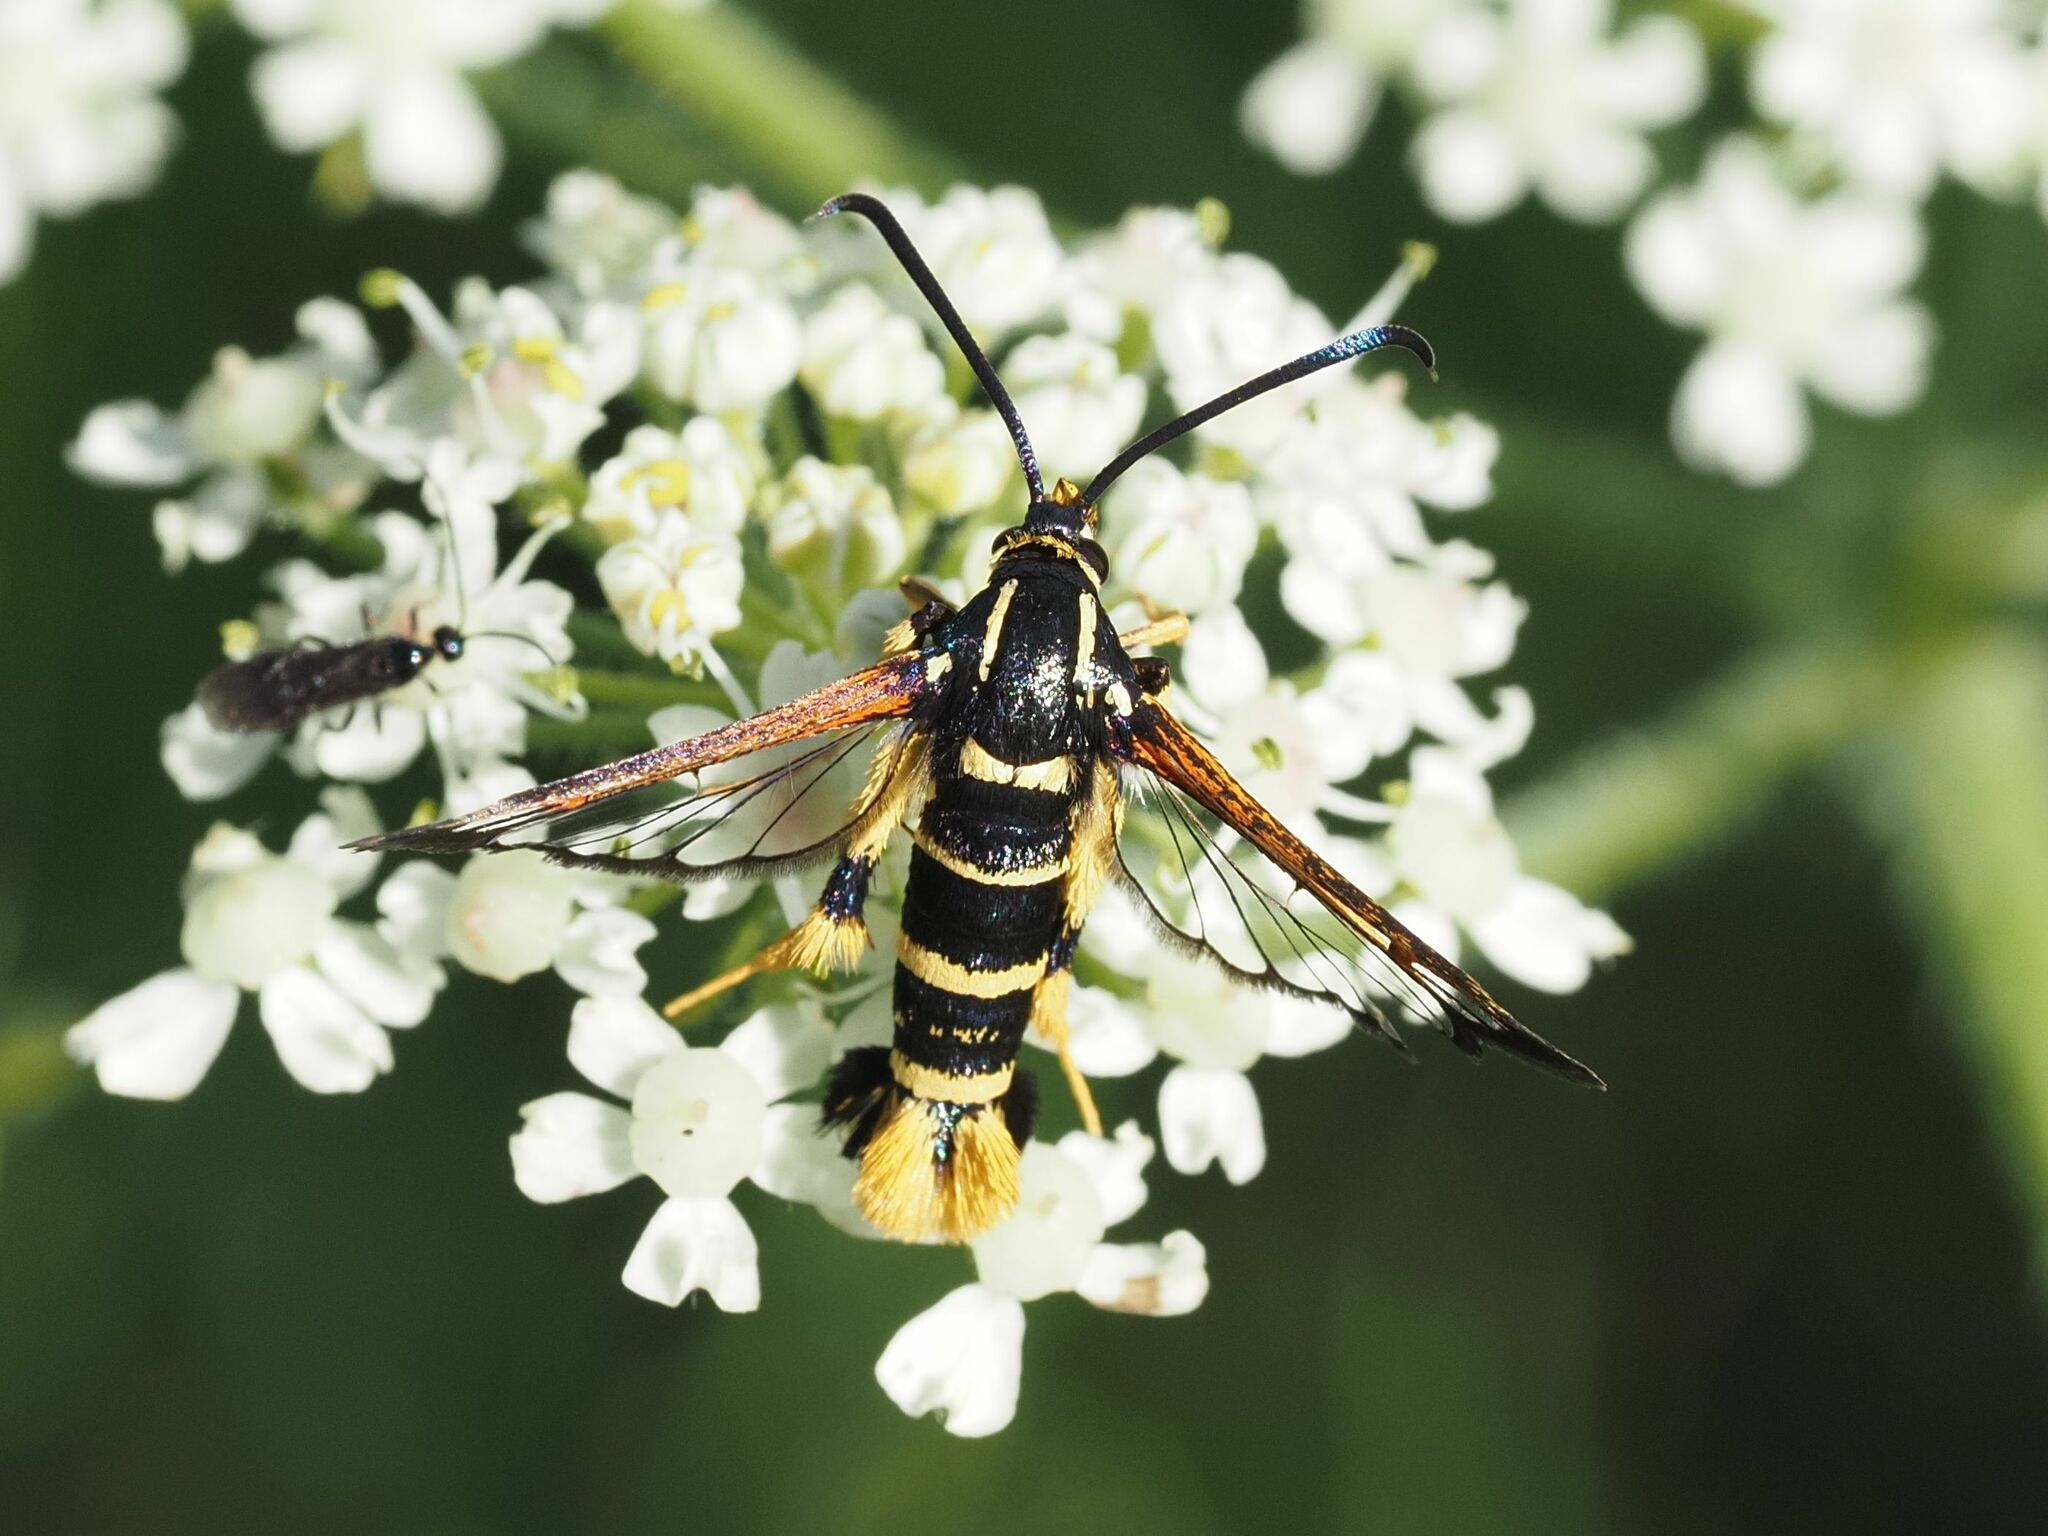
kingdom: Animalia
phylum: Arthropoda
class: Insecta
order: Lepidoptera
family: Sesiidae
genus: Synanthedon
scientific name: Synanthedon vespiformis
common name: Yellow-legged clearwing
